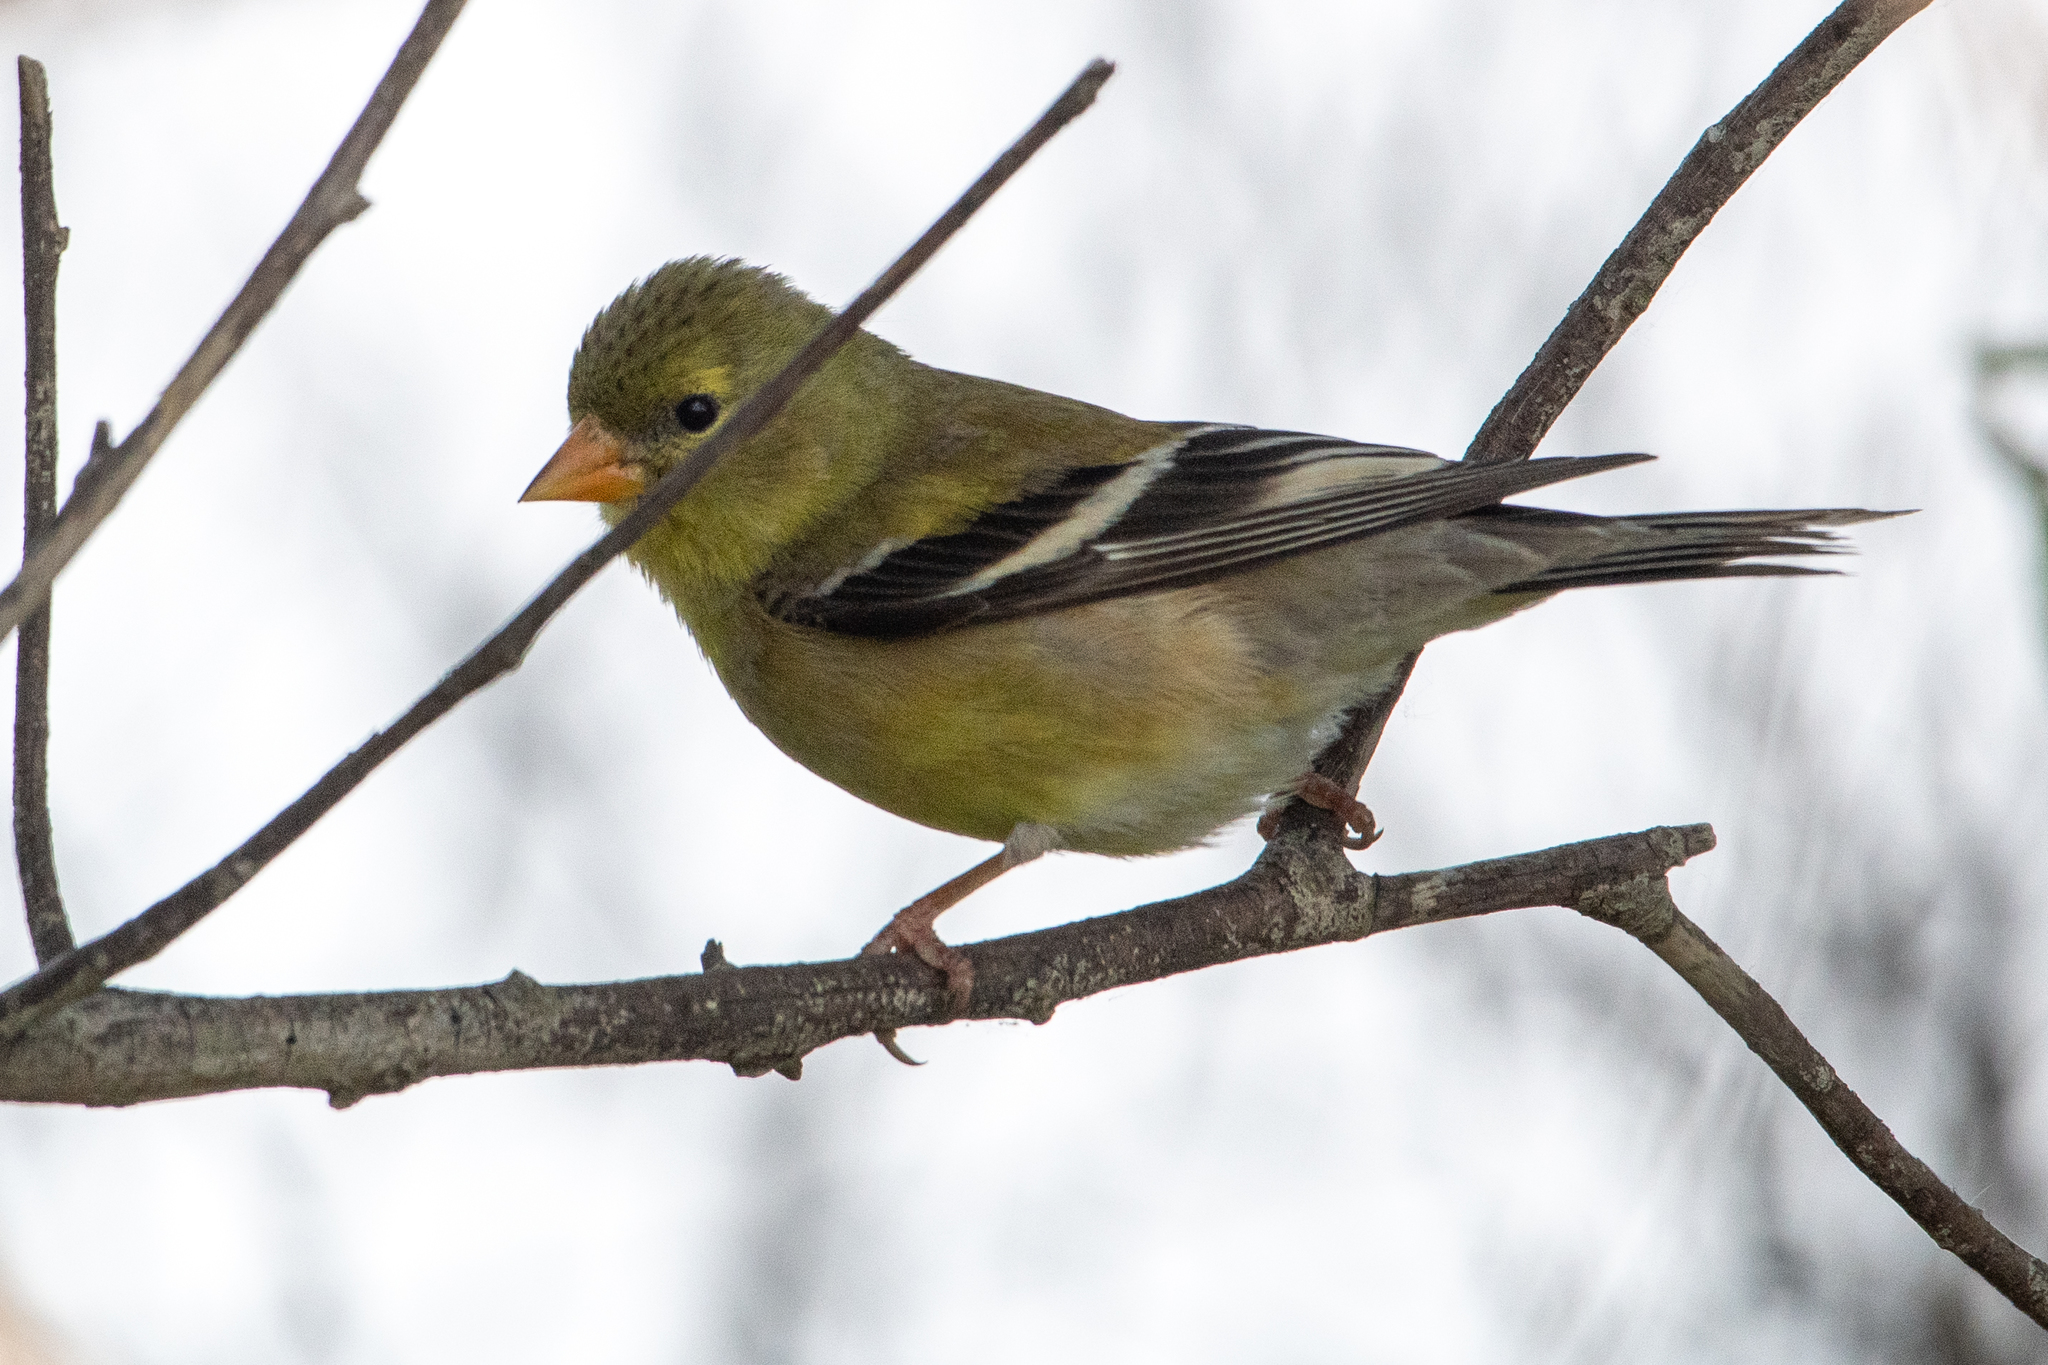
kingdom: Animalia
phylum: Chordata
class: Aves
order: Passeriformes
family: Fringillidae
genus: Spinus
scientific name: Spinus tristis
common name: American goldfinch
